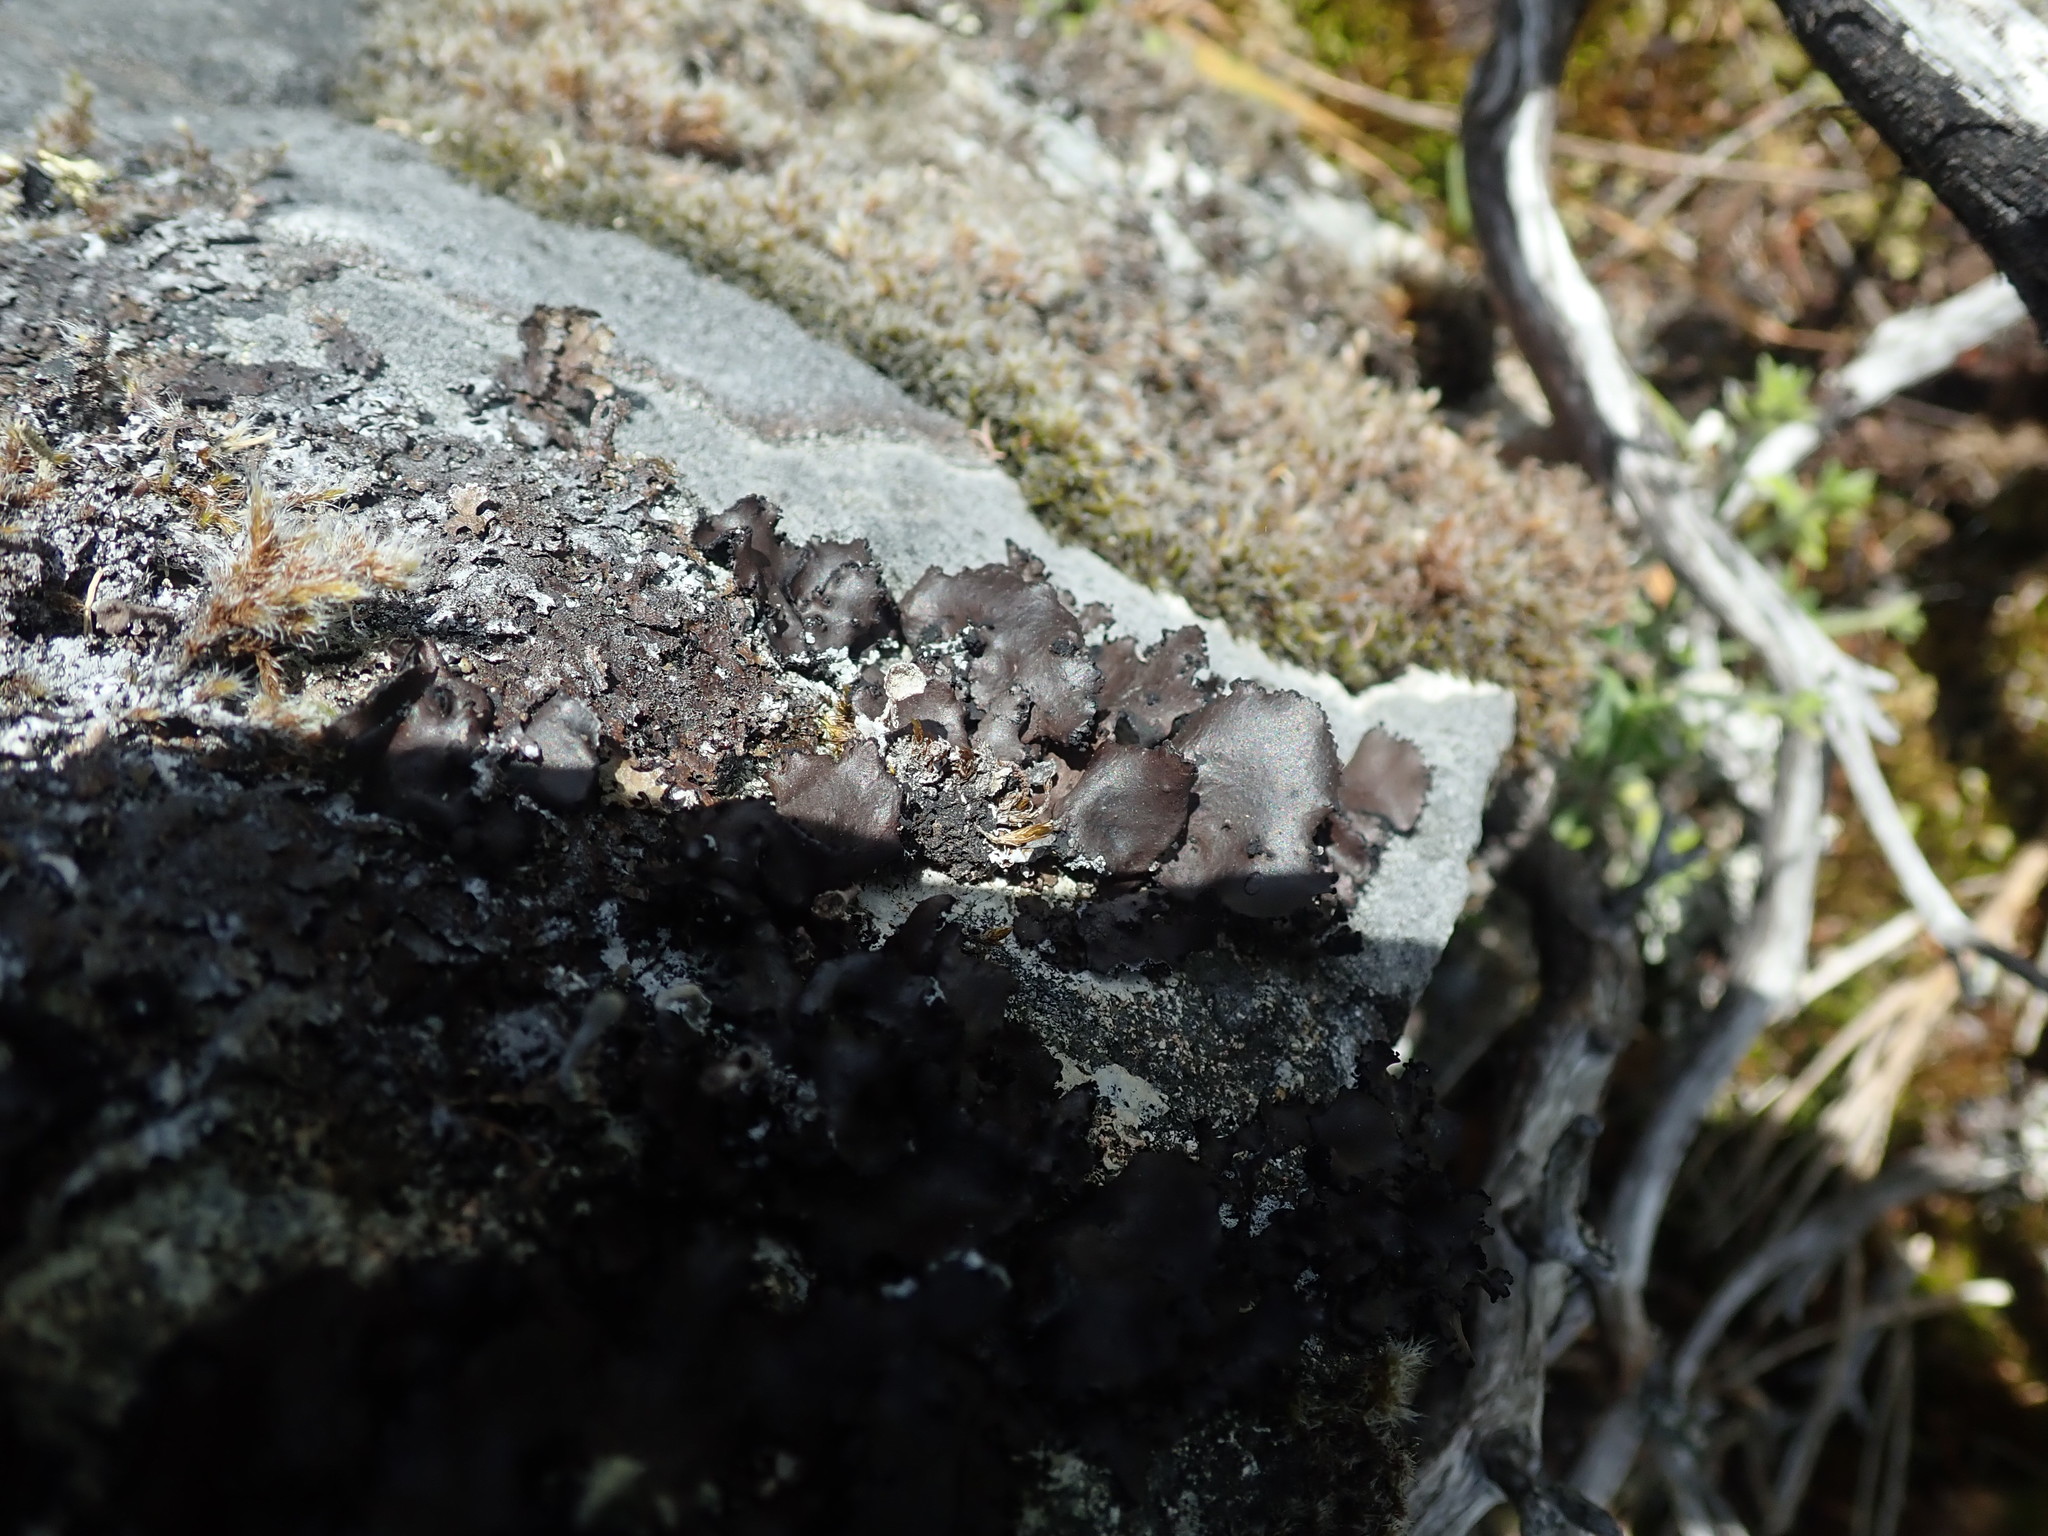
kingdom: Fungi
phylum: Ascomycota
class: Lecanoromycetes
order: Umbilicariales
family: Umbilicariaceae
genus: Umbilicaria
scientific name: Umbilicaria polyrrhiza
